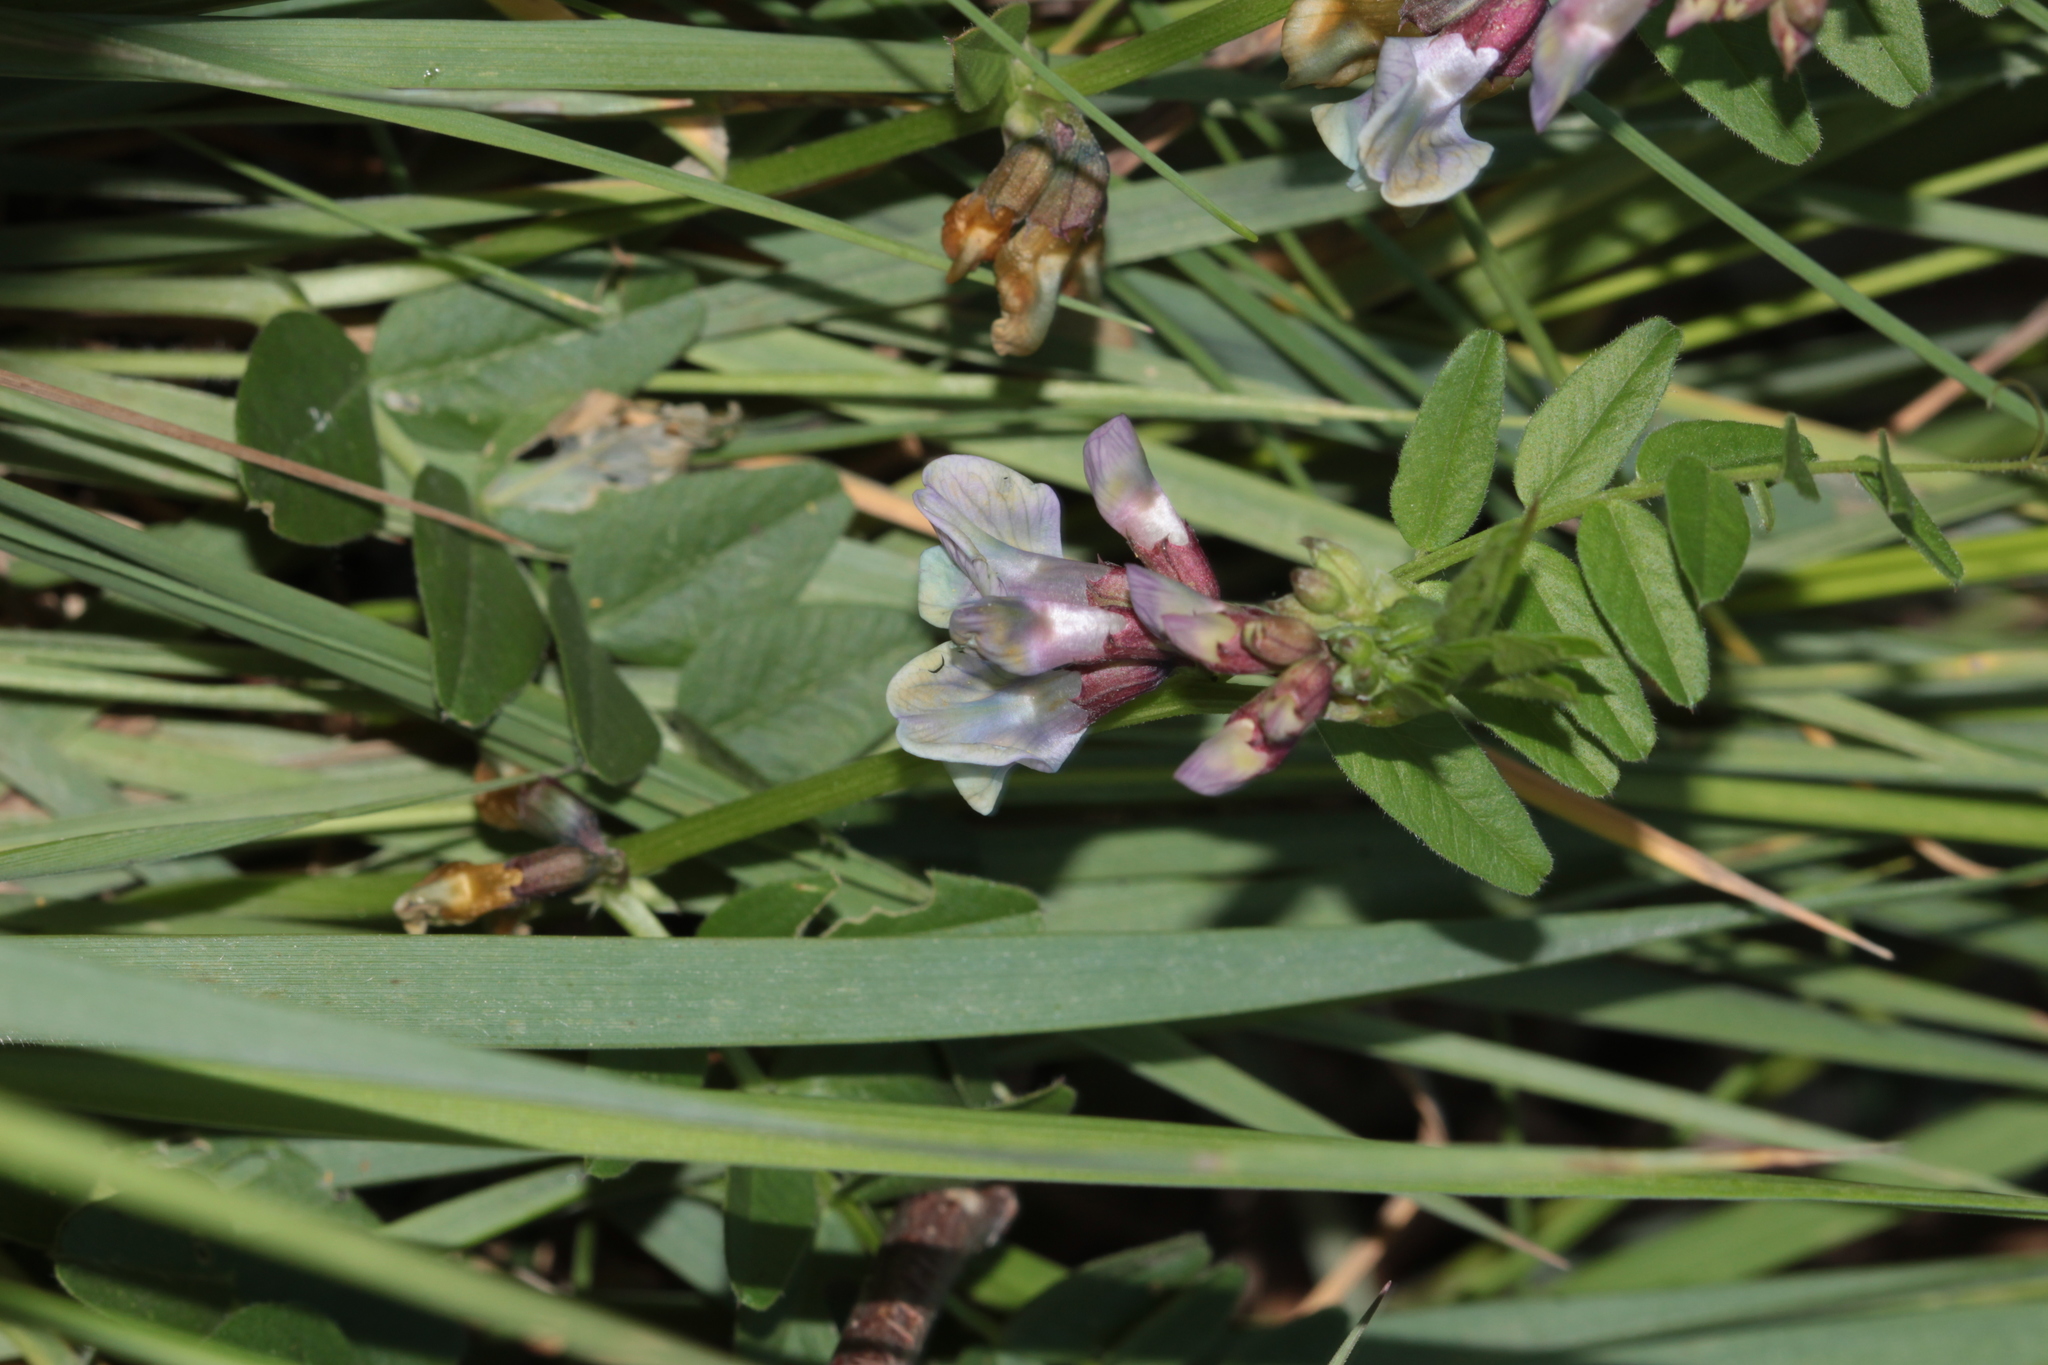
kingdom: Plantae
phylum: Tracheophyta
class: Magnoliopsida
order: Fabales
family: Fabaceae
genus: Vicia
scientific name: Vicia sepium
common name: Bush vetch
